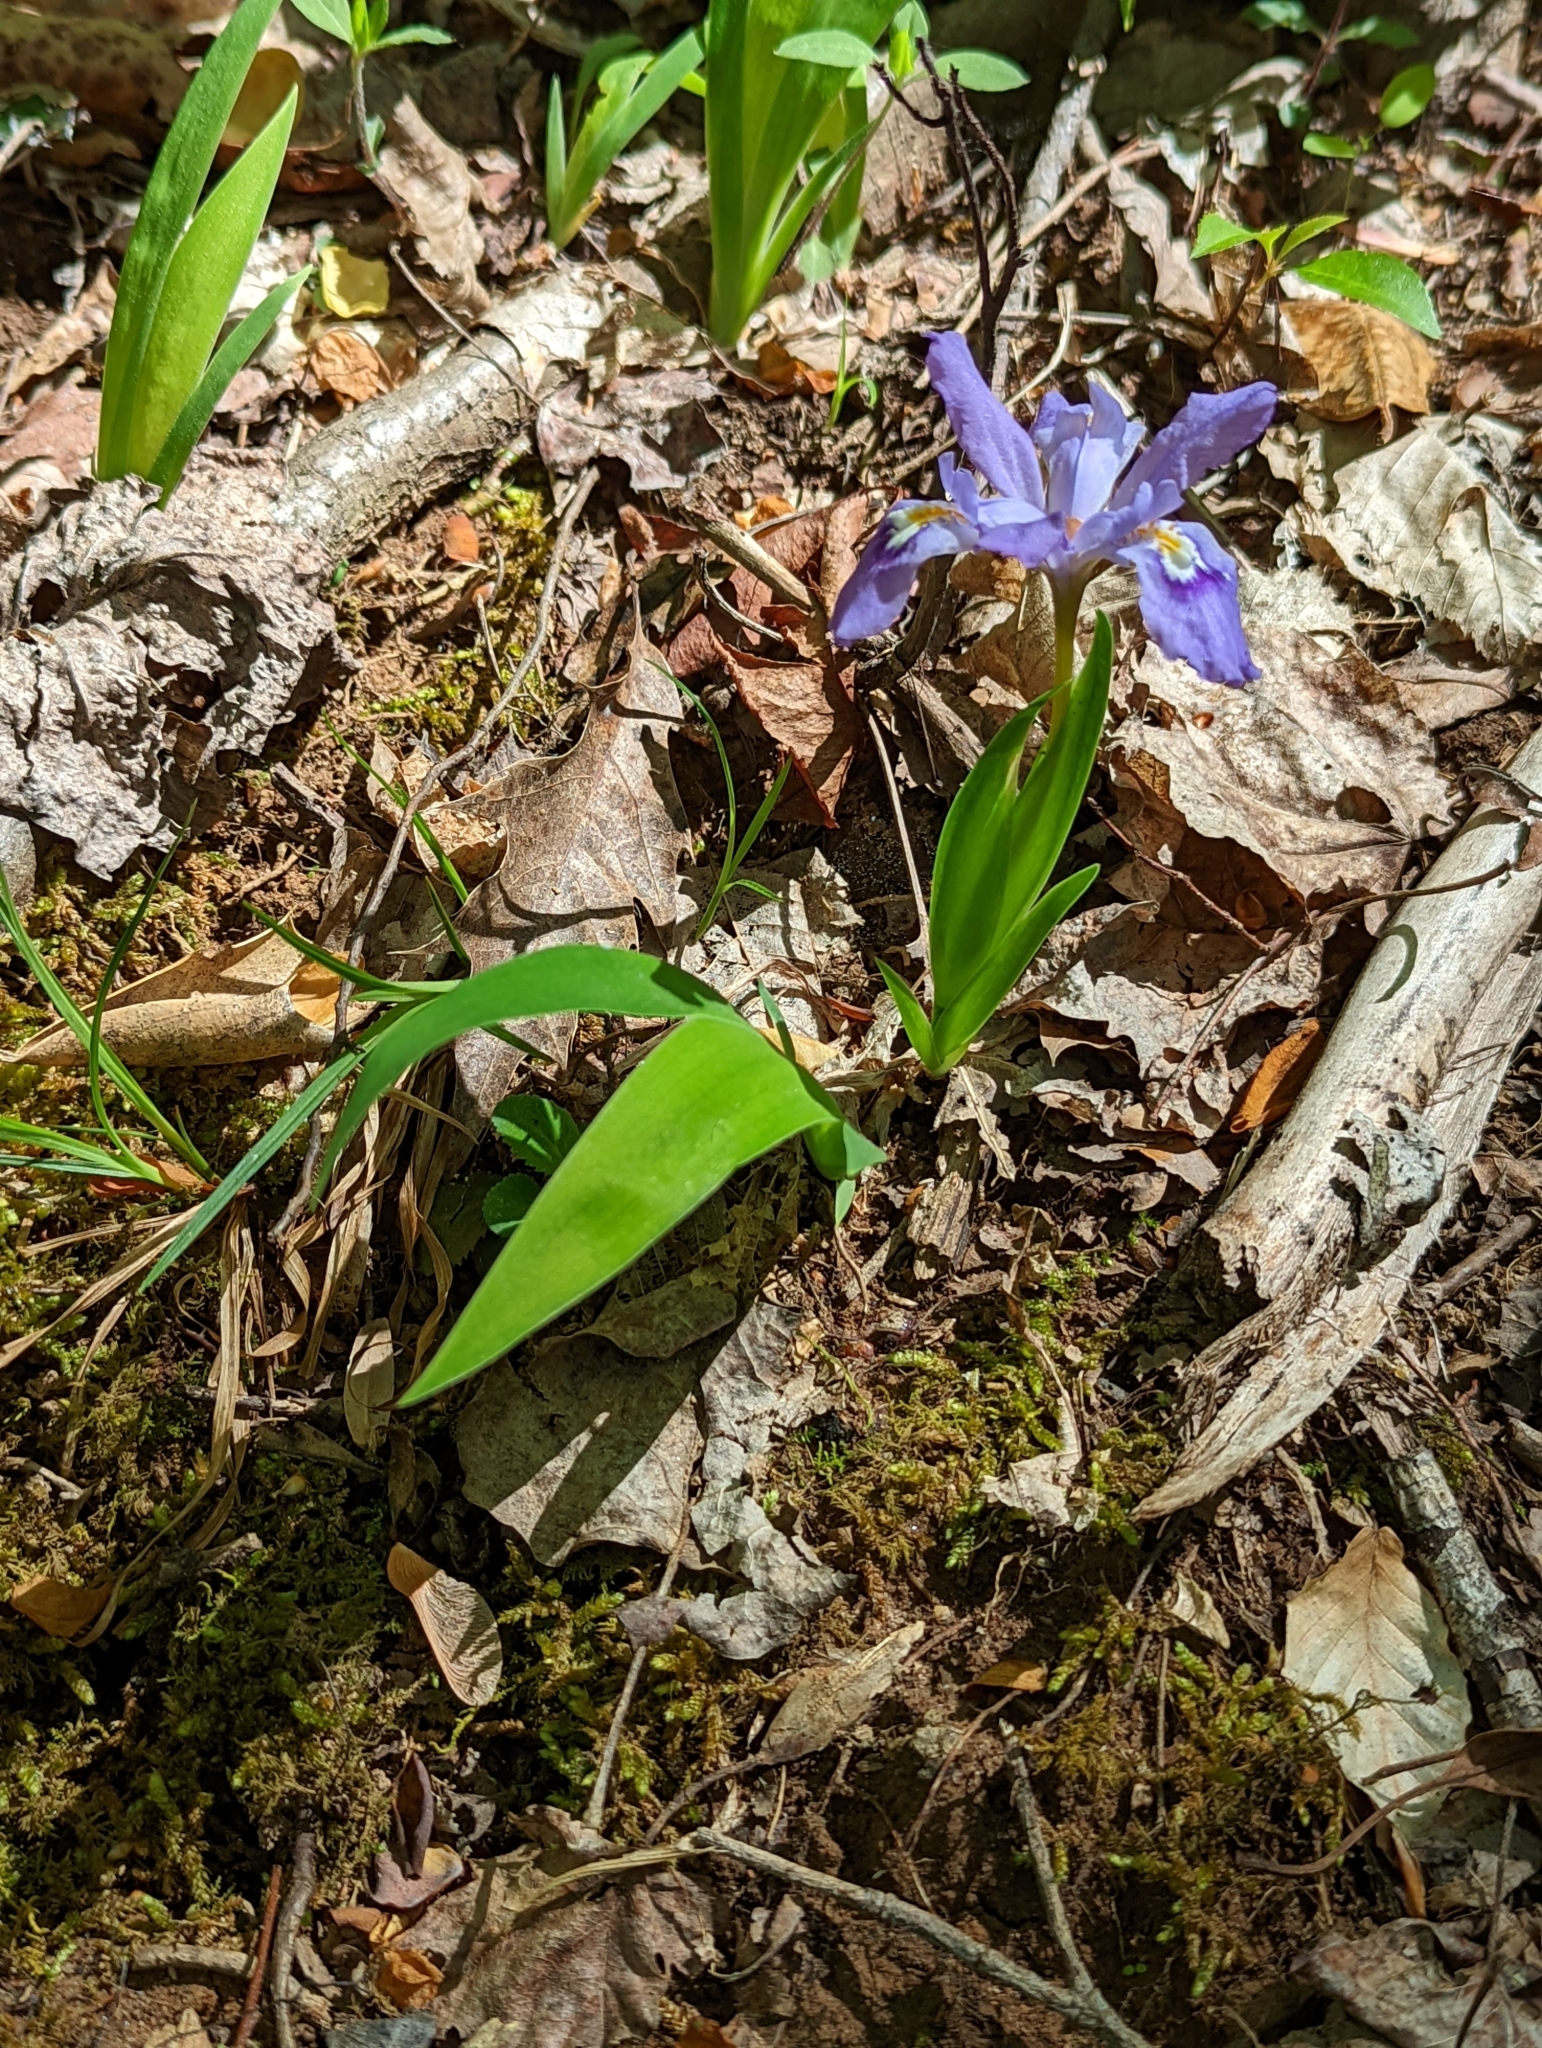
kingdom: Plantae
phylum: Tracheophyta
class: Liliopsida
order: Asparagales
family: Iridaceae
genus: Iris
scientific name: Iris cristata
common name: Crested iris
